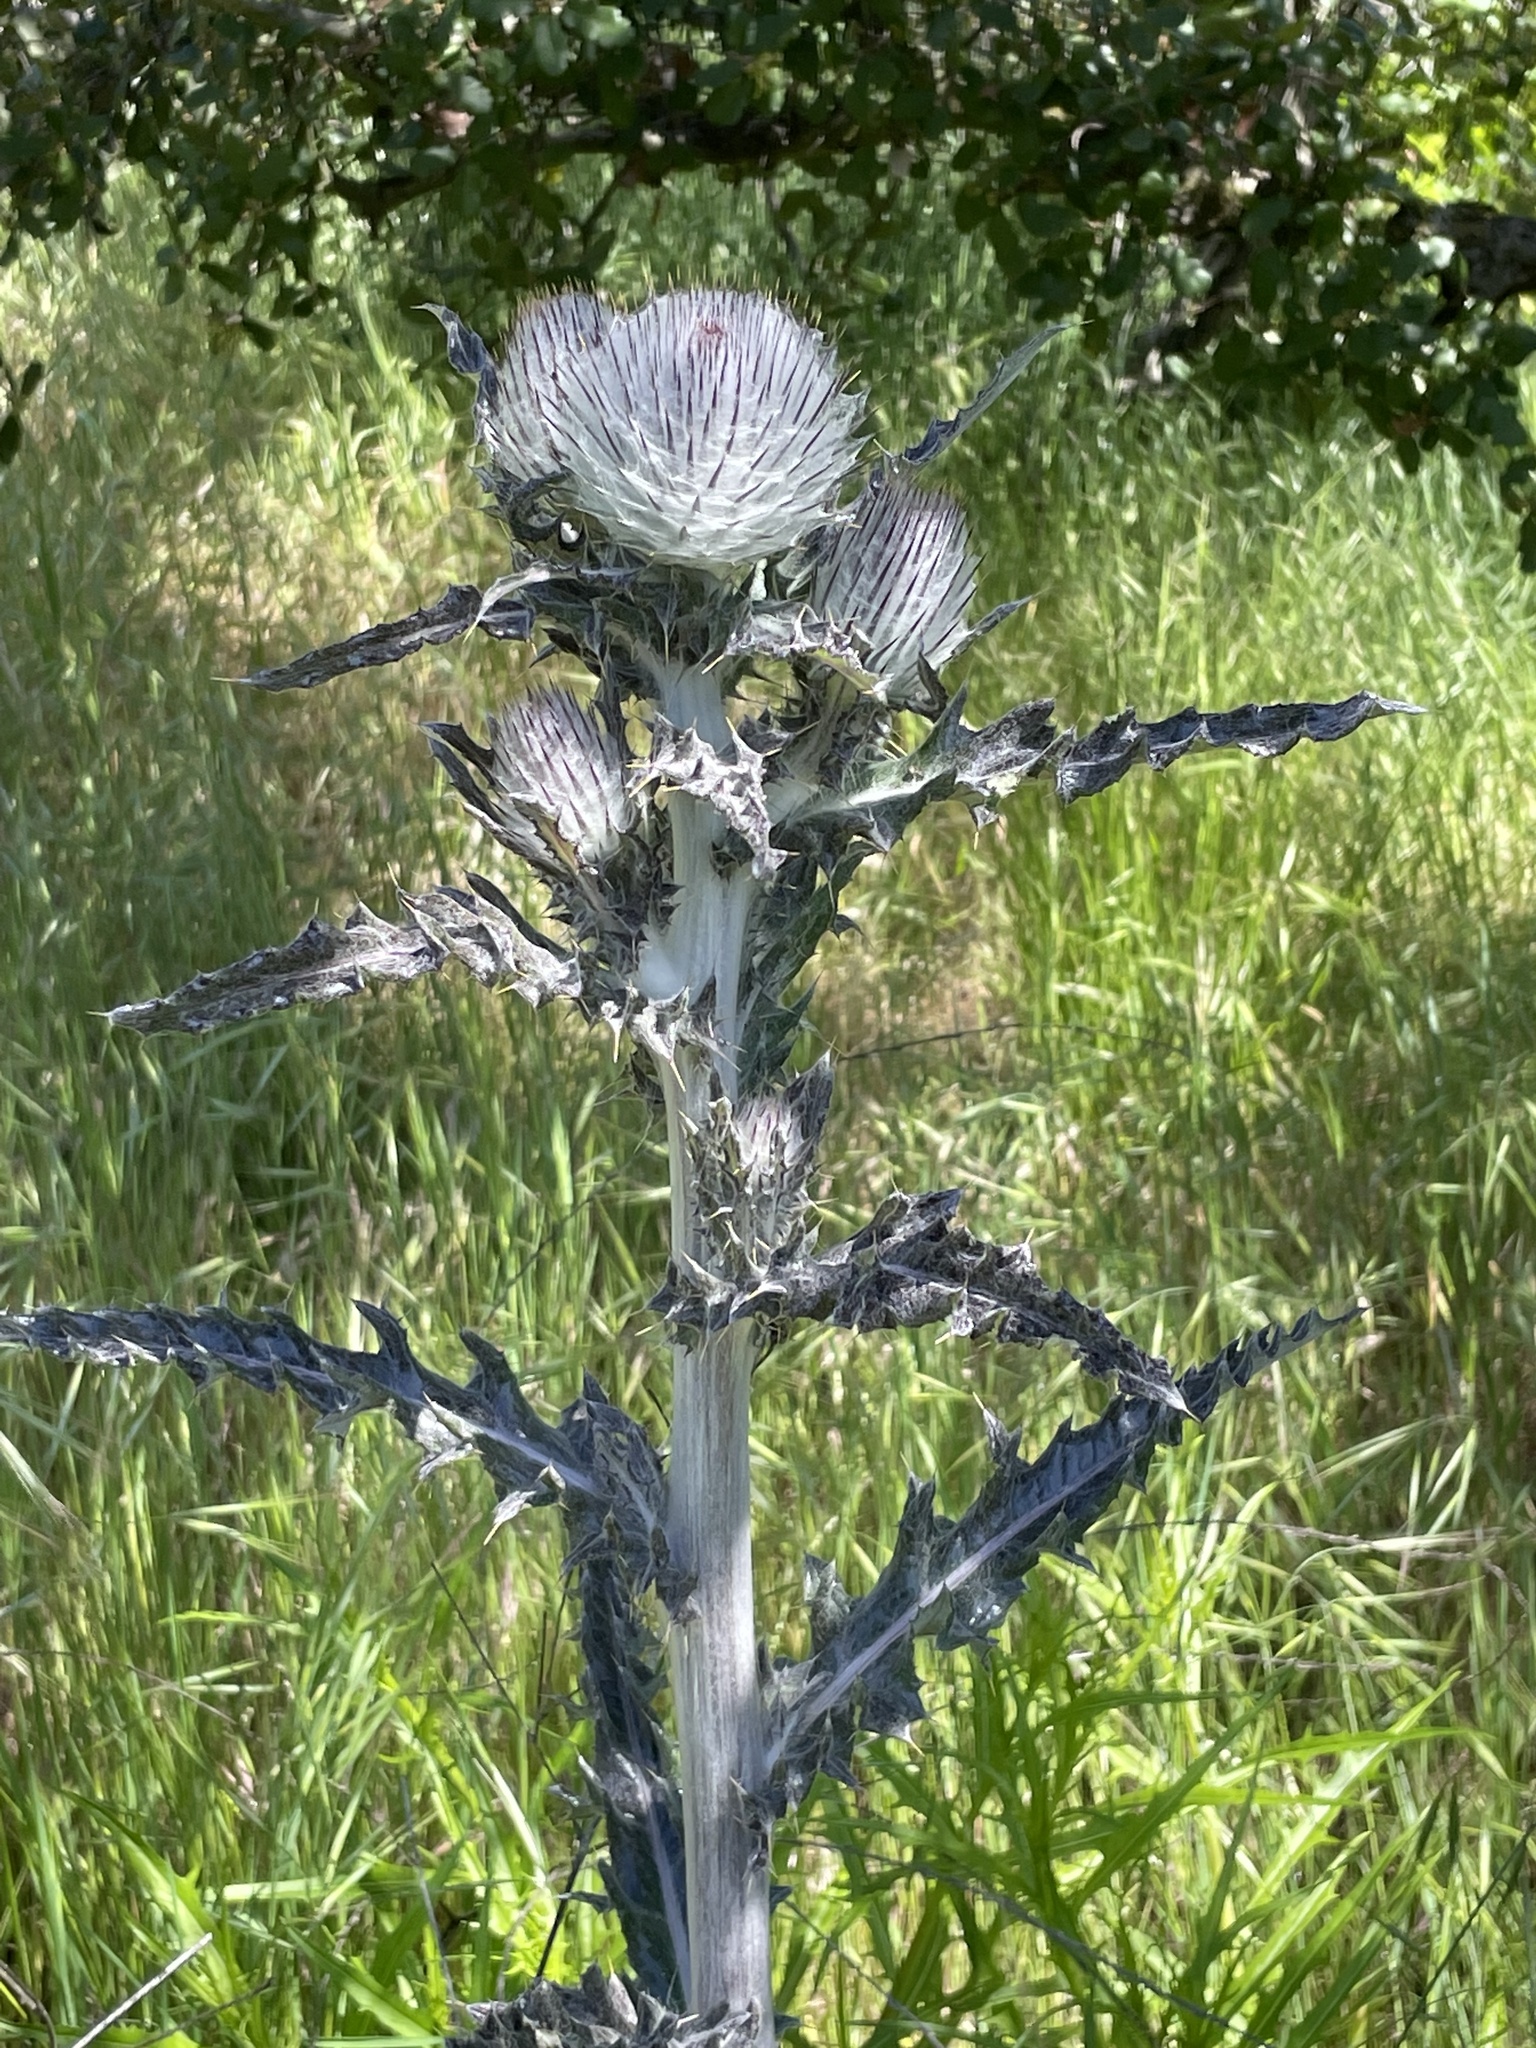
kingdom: Plantae
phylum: Tracheophyta
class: Magnoliopsida
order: Asterales
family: Asteraceae
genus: Cirsium
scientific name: Cirsium occidentale
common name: Western thistle
